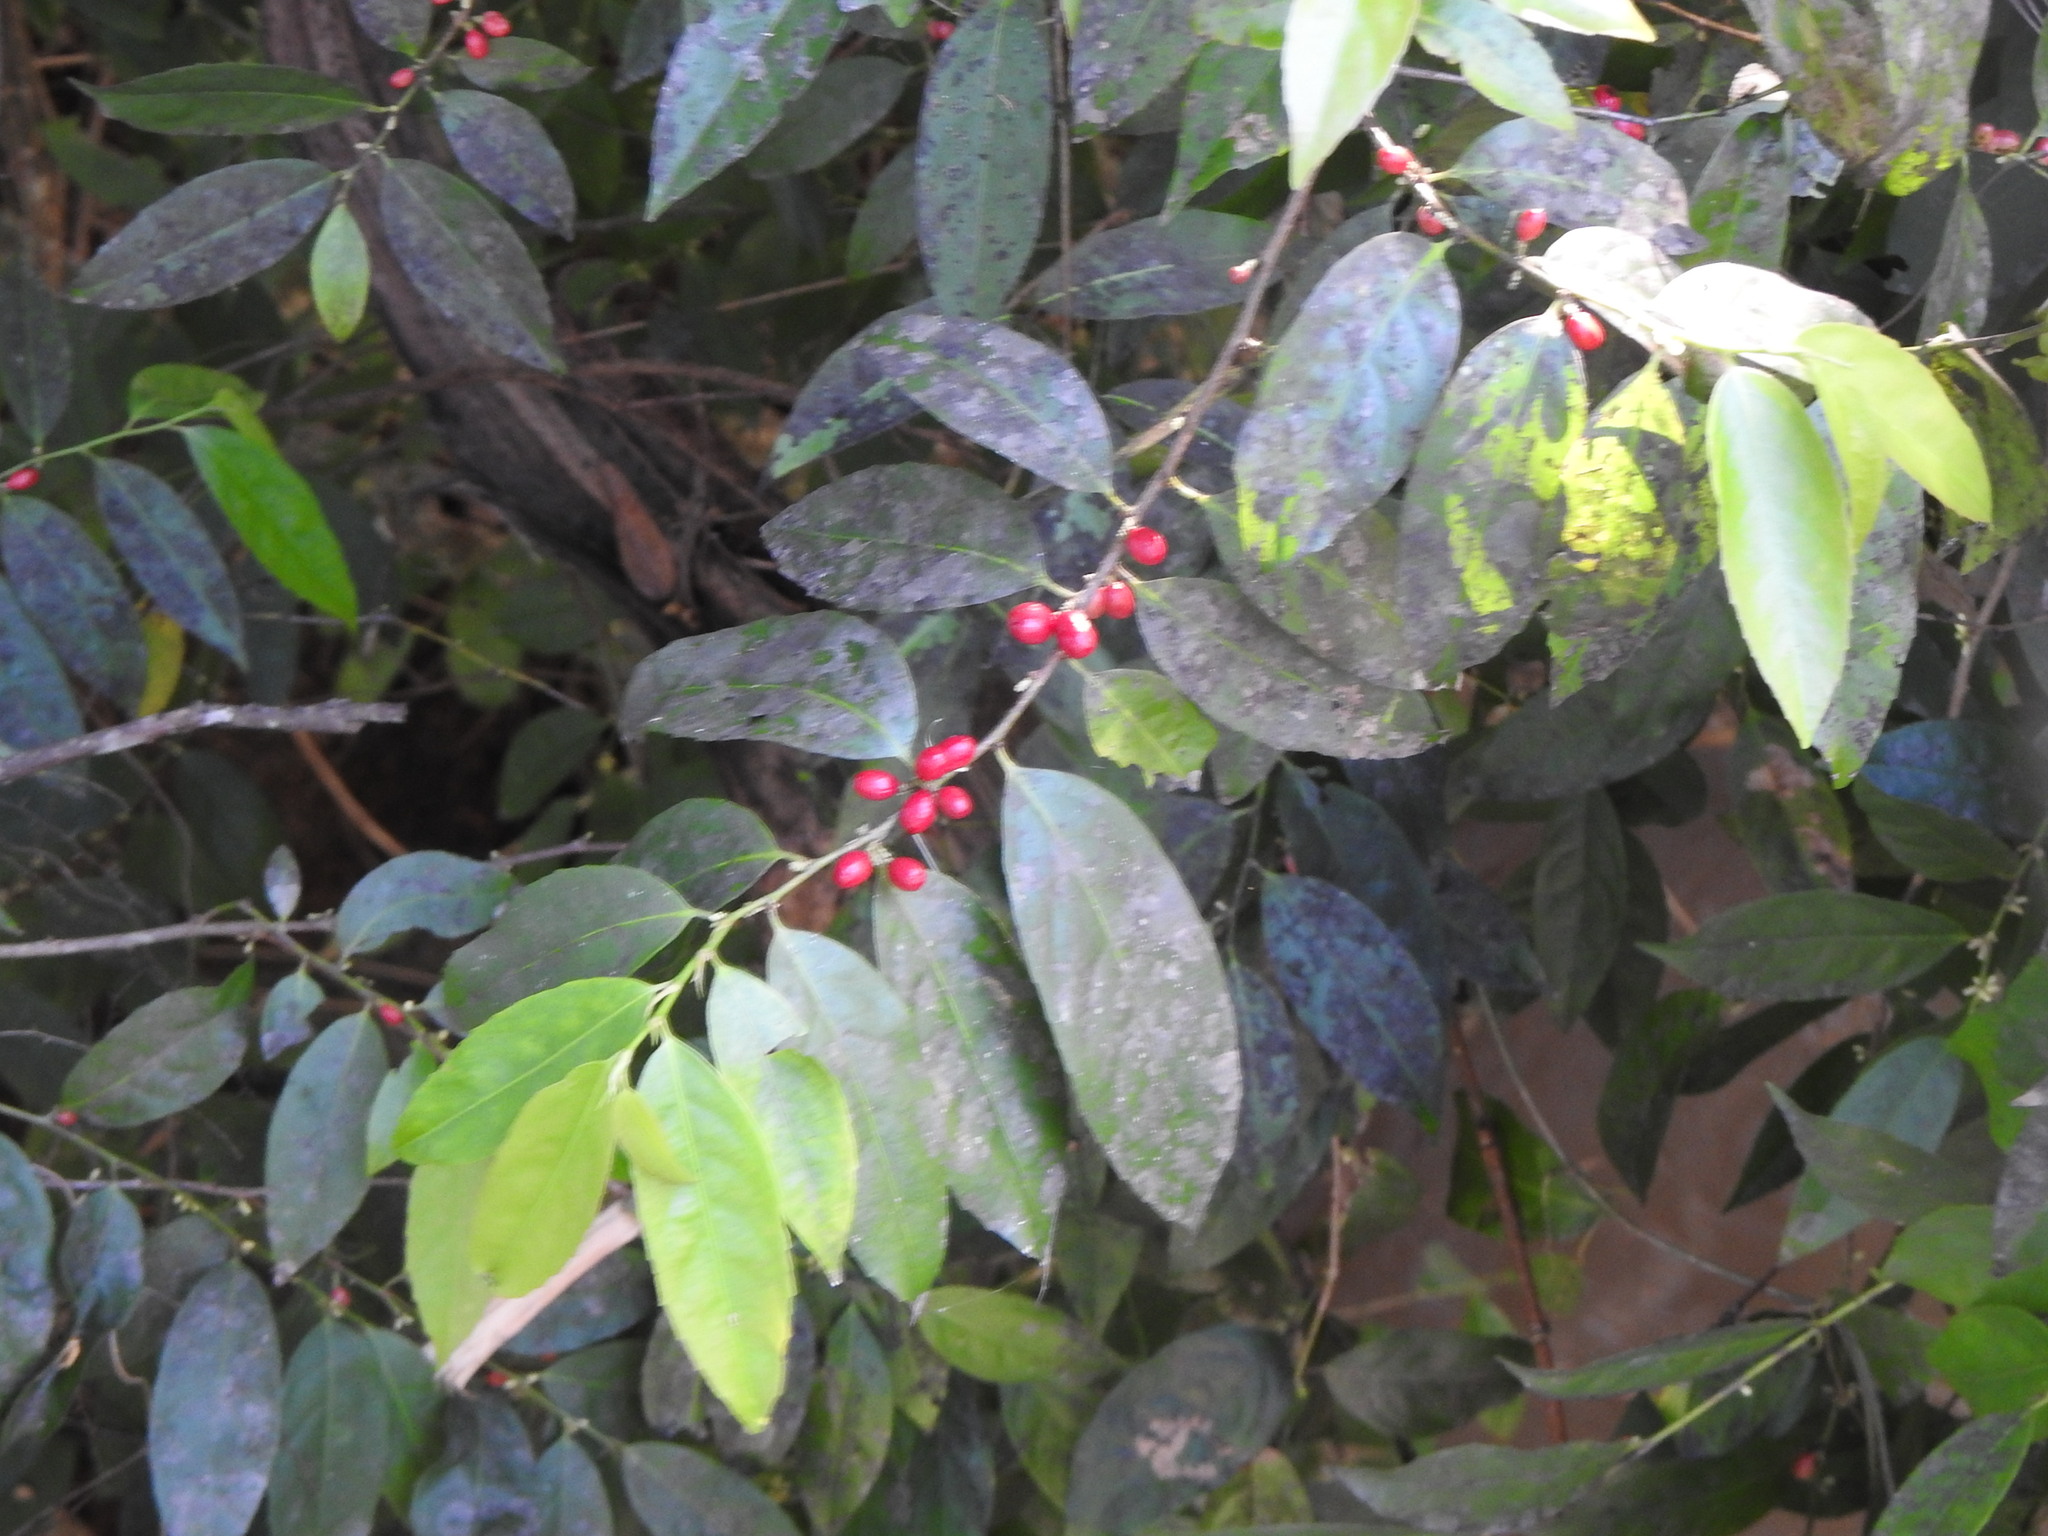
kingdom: Plantae
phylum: Tracheophyta
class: Magnoliopsida
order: Malpighiales
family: Lacistemataceae
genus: Lacistema
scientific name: Lacistema hasslerianum
